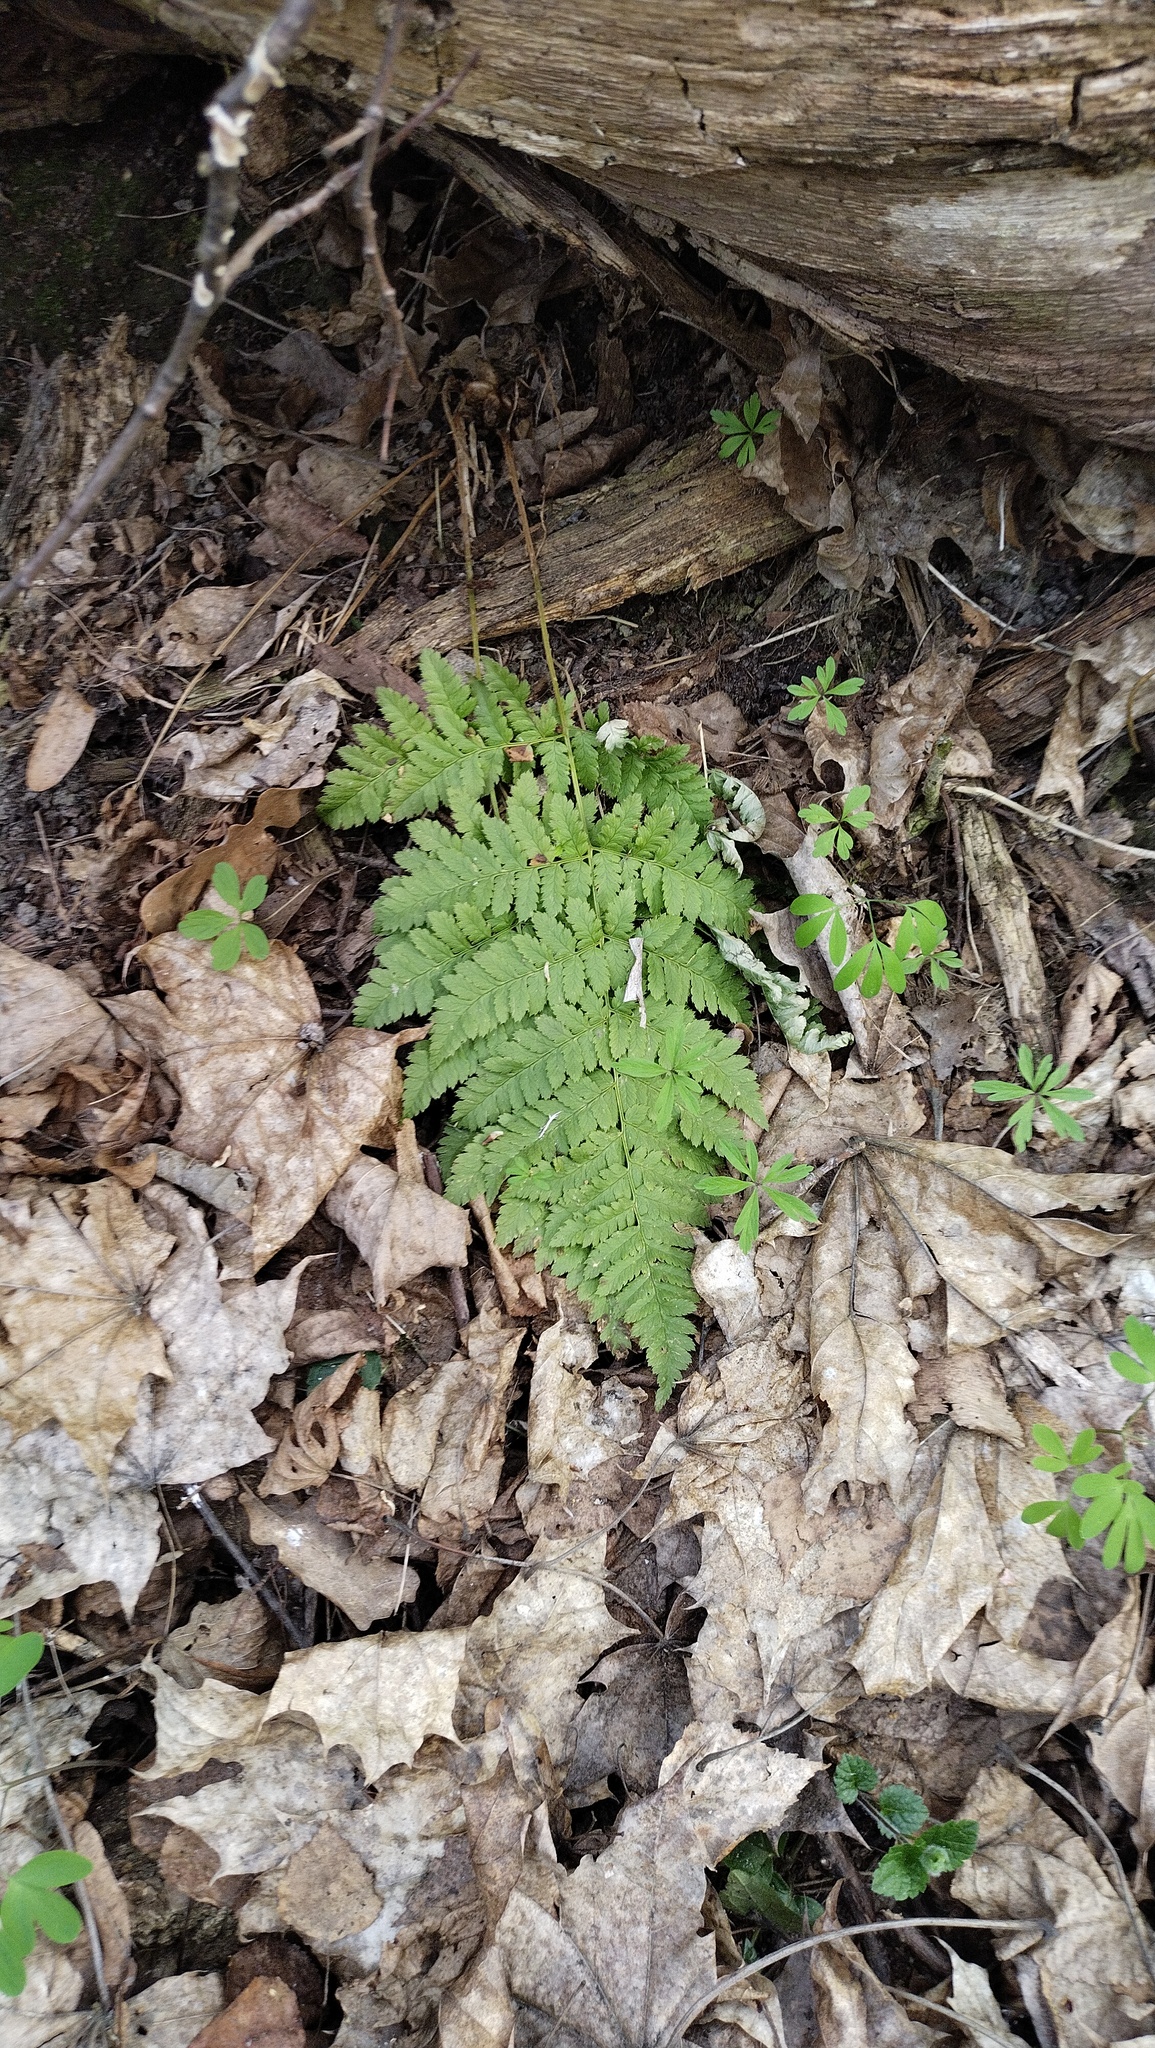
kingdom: Plantae
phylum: Tracheophyta
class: Polypodiopsida
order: Polypodiales
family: Dryopteridaceae
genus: Dryopteris
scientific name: Dryopteris carthusiana
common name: Narrow buckler-fern
